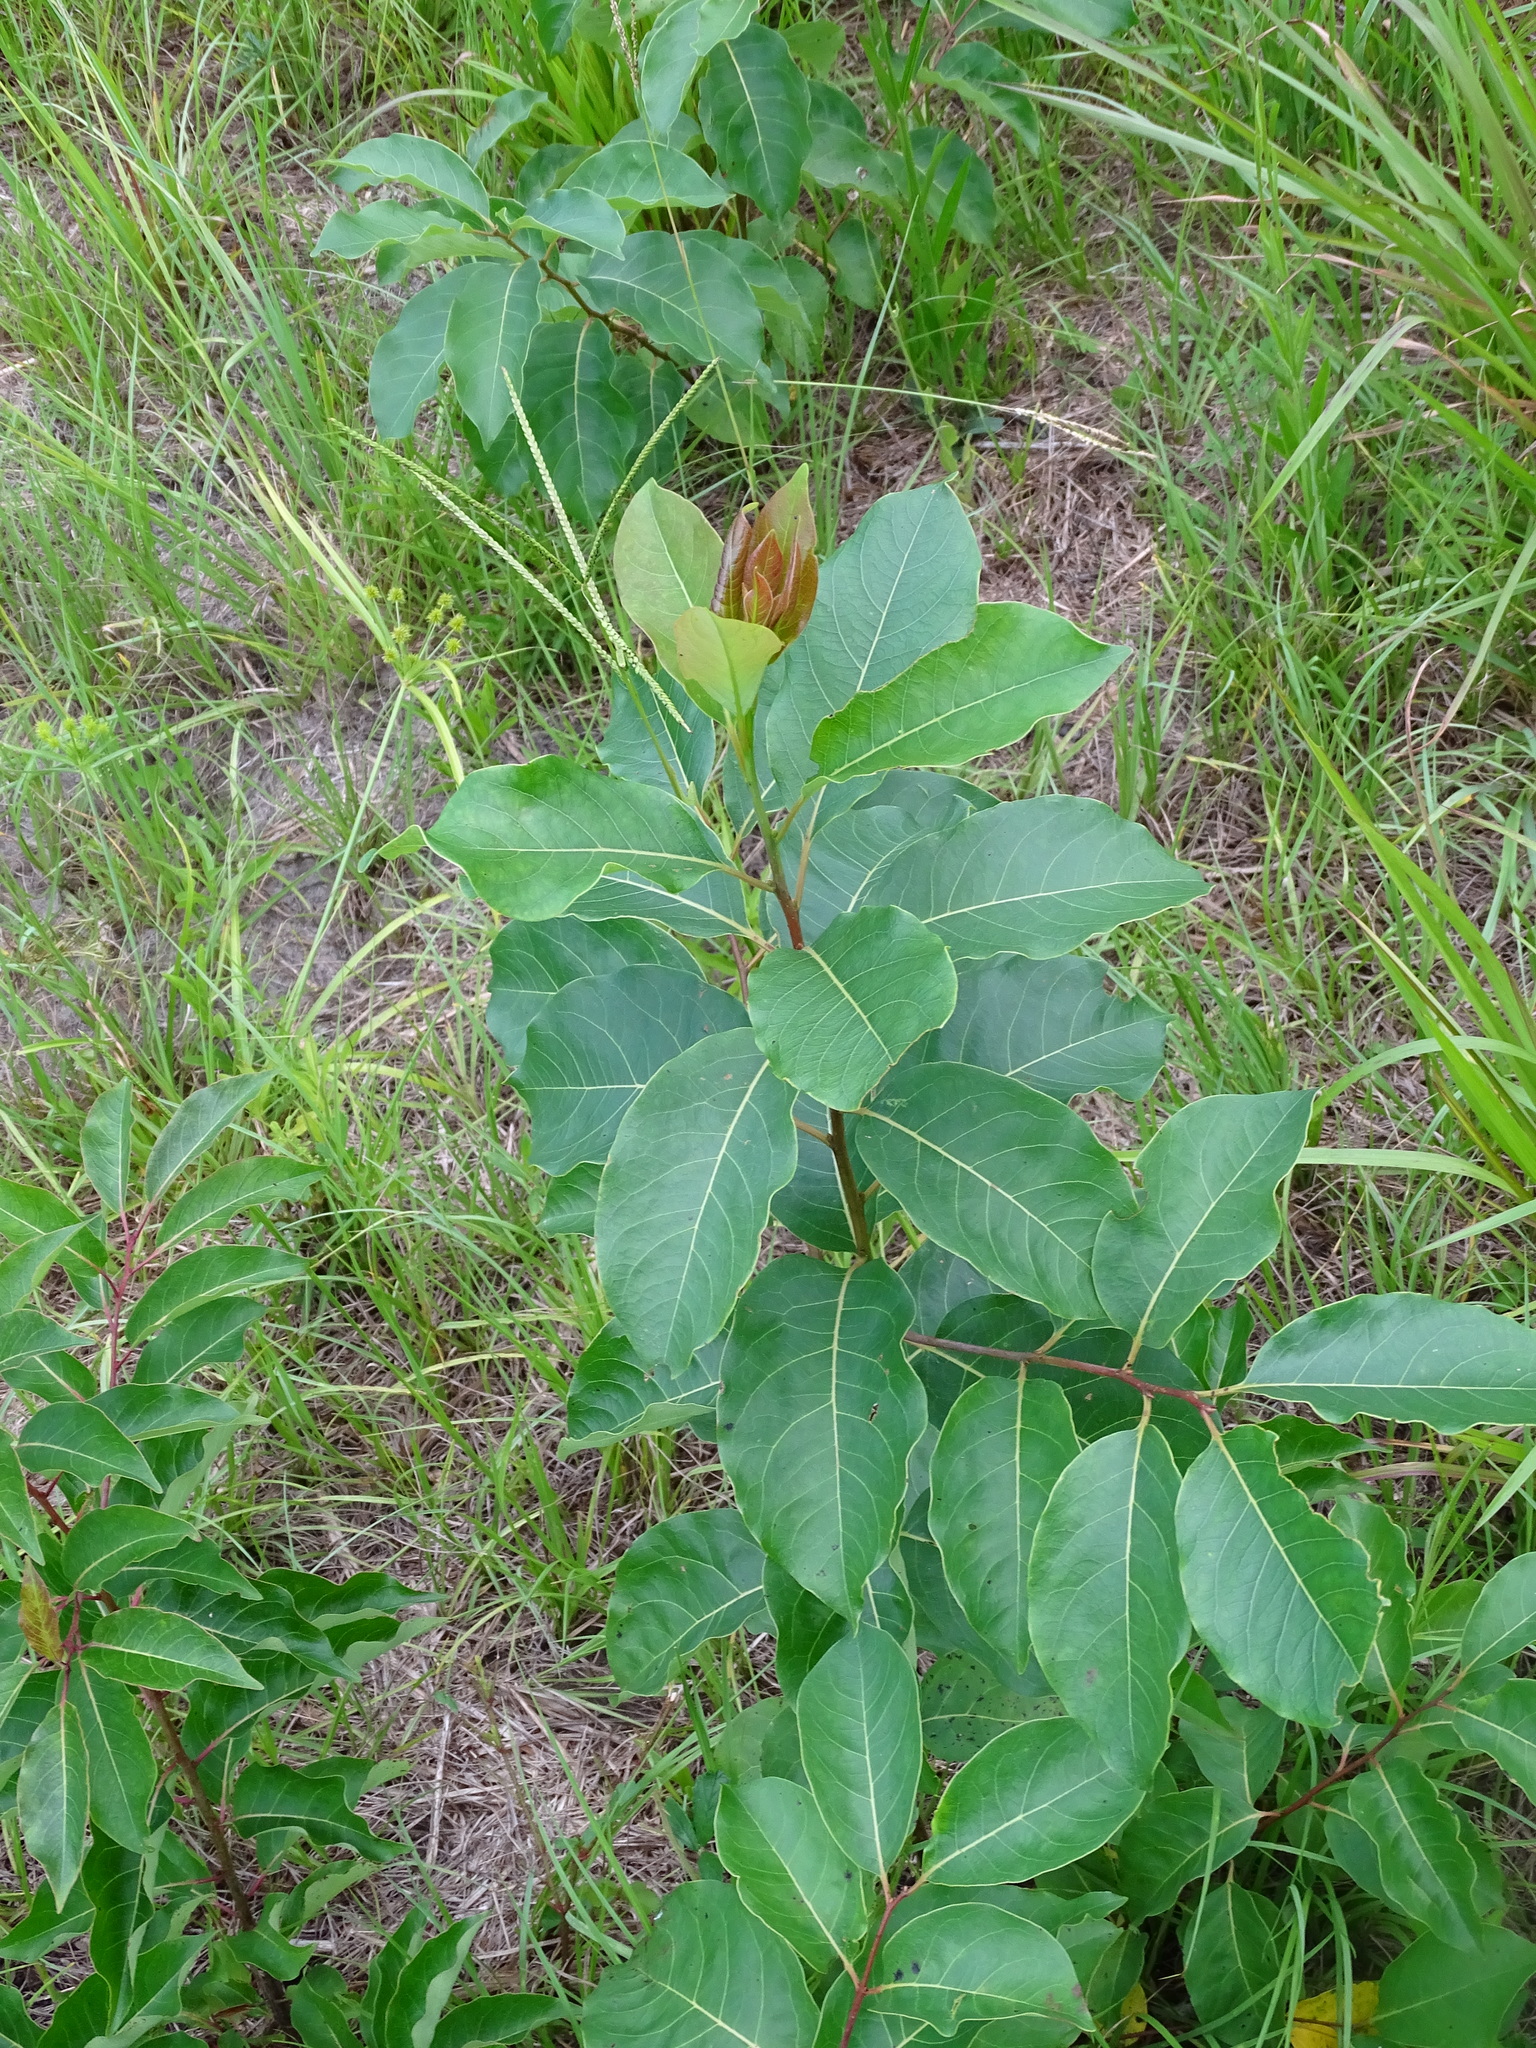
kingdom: Plantae
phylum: Tracheophyta
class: Magnoliopsida
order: Ericales
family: Ebenaceae
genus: Diospyros
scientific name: Diospyros virginiana
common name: Persimmon
